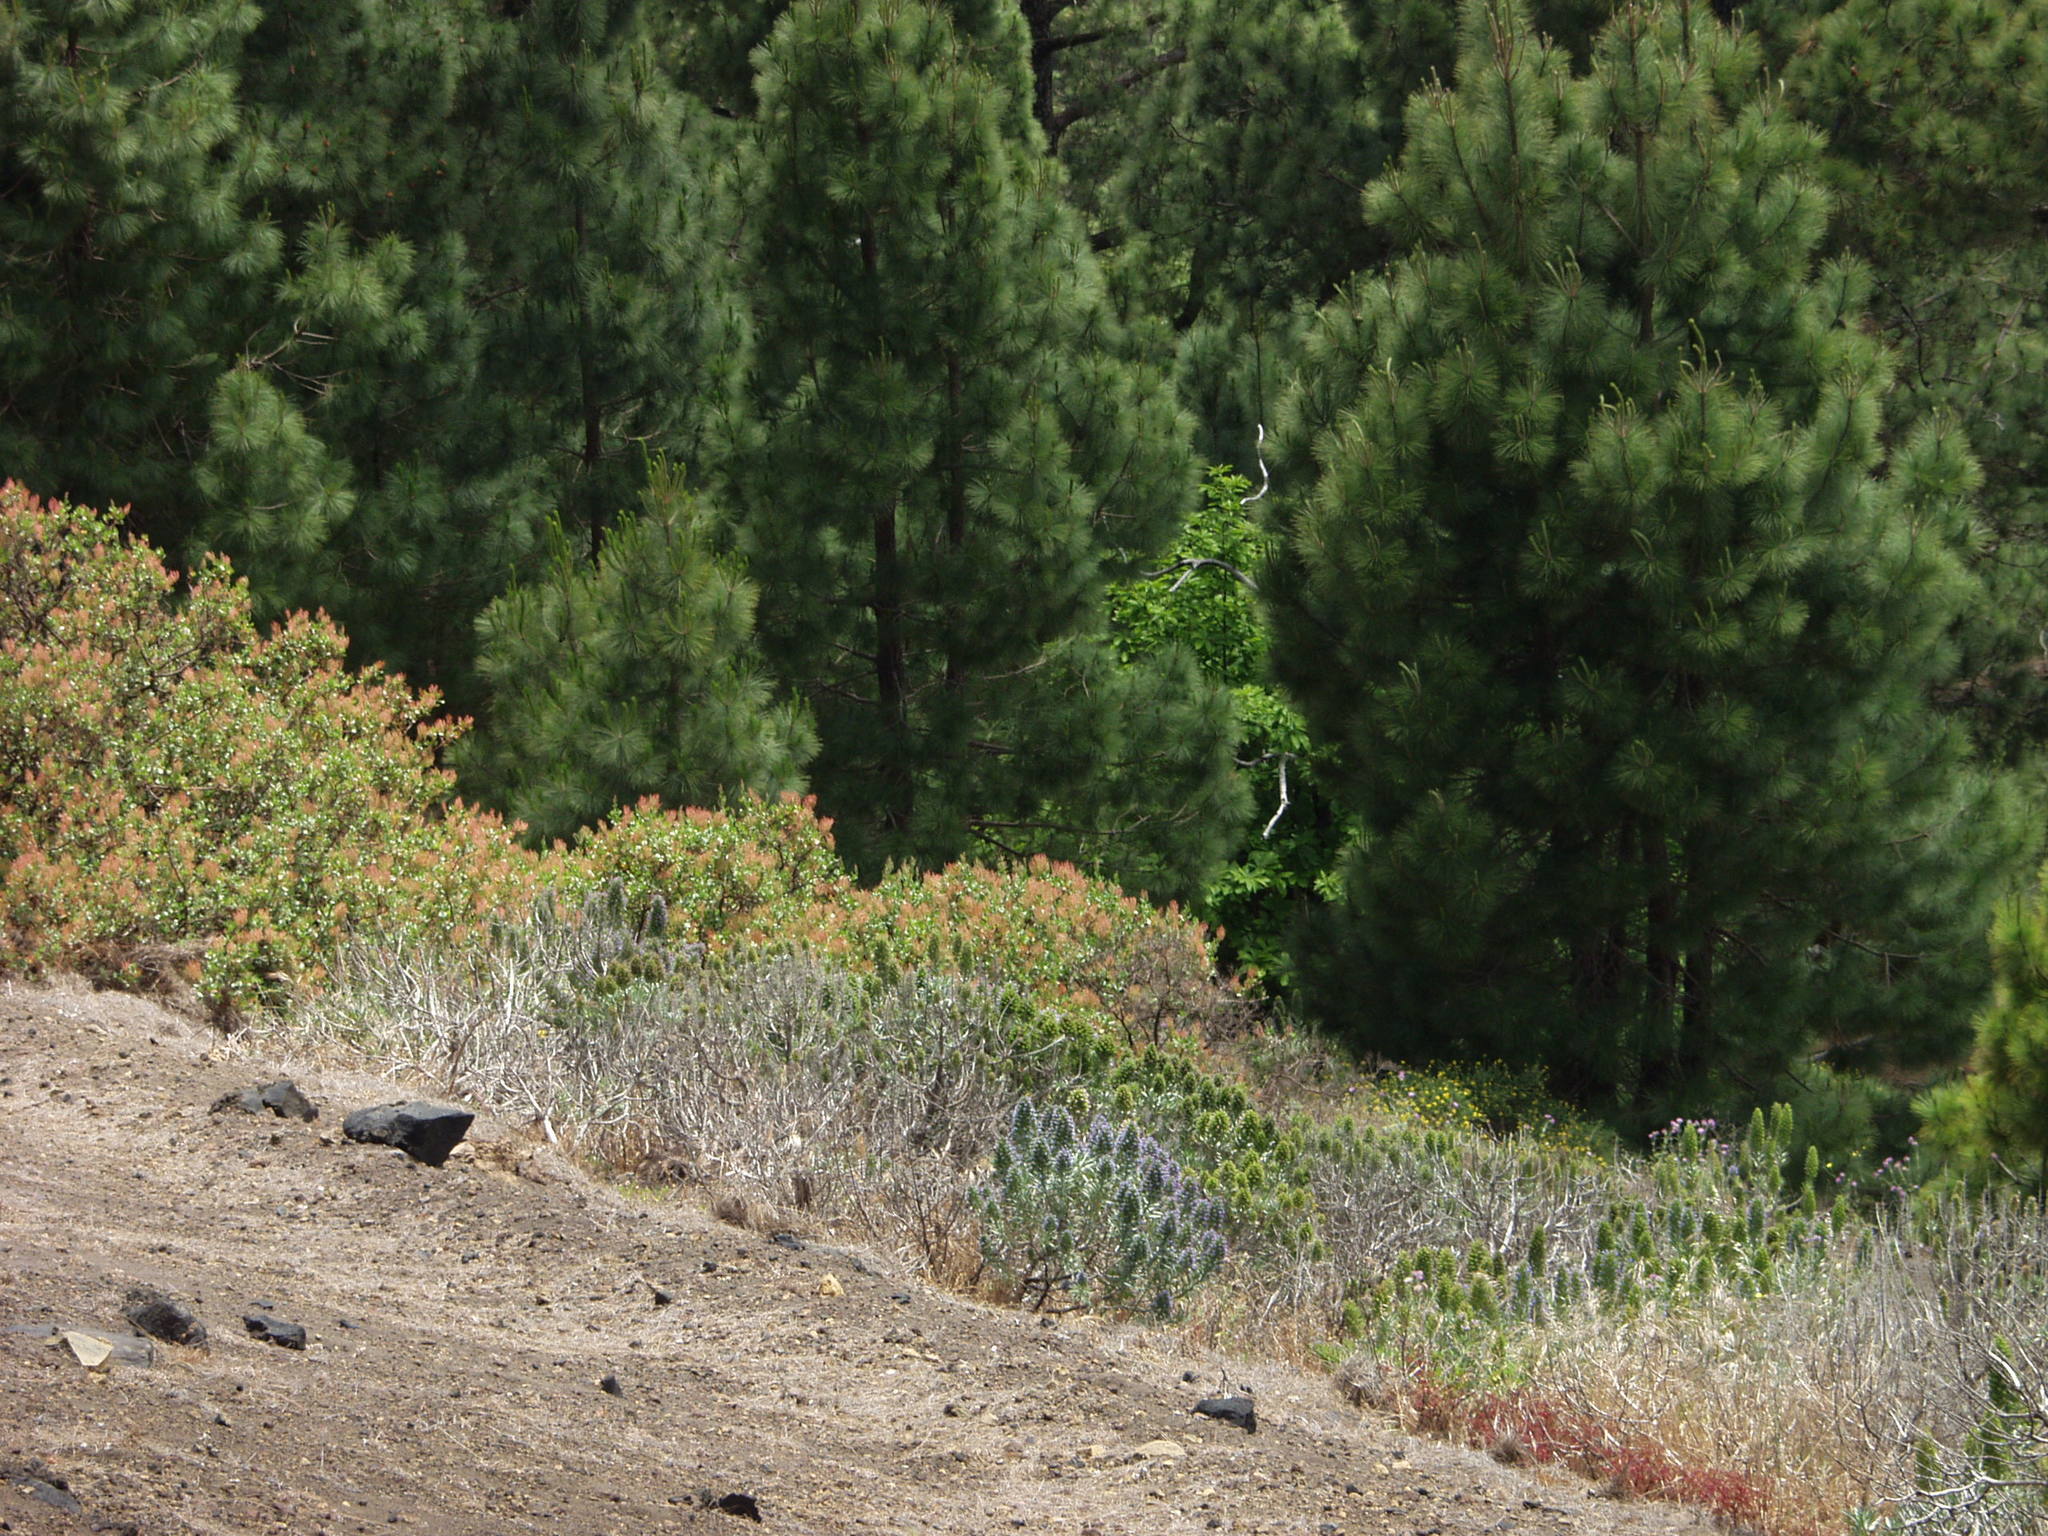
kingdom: Plantae
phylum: Tracheophyta
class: Magnoliopsida
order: Boraginales
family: Boraginaceae
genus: Echium
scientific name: Echium webbii
